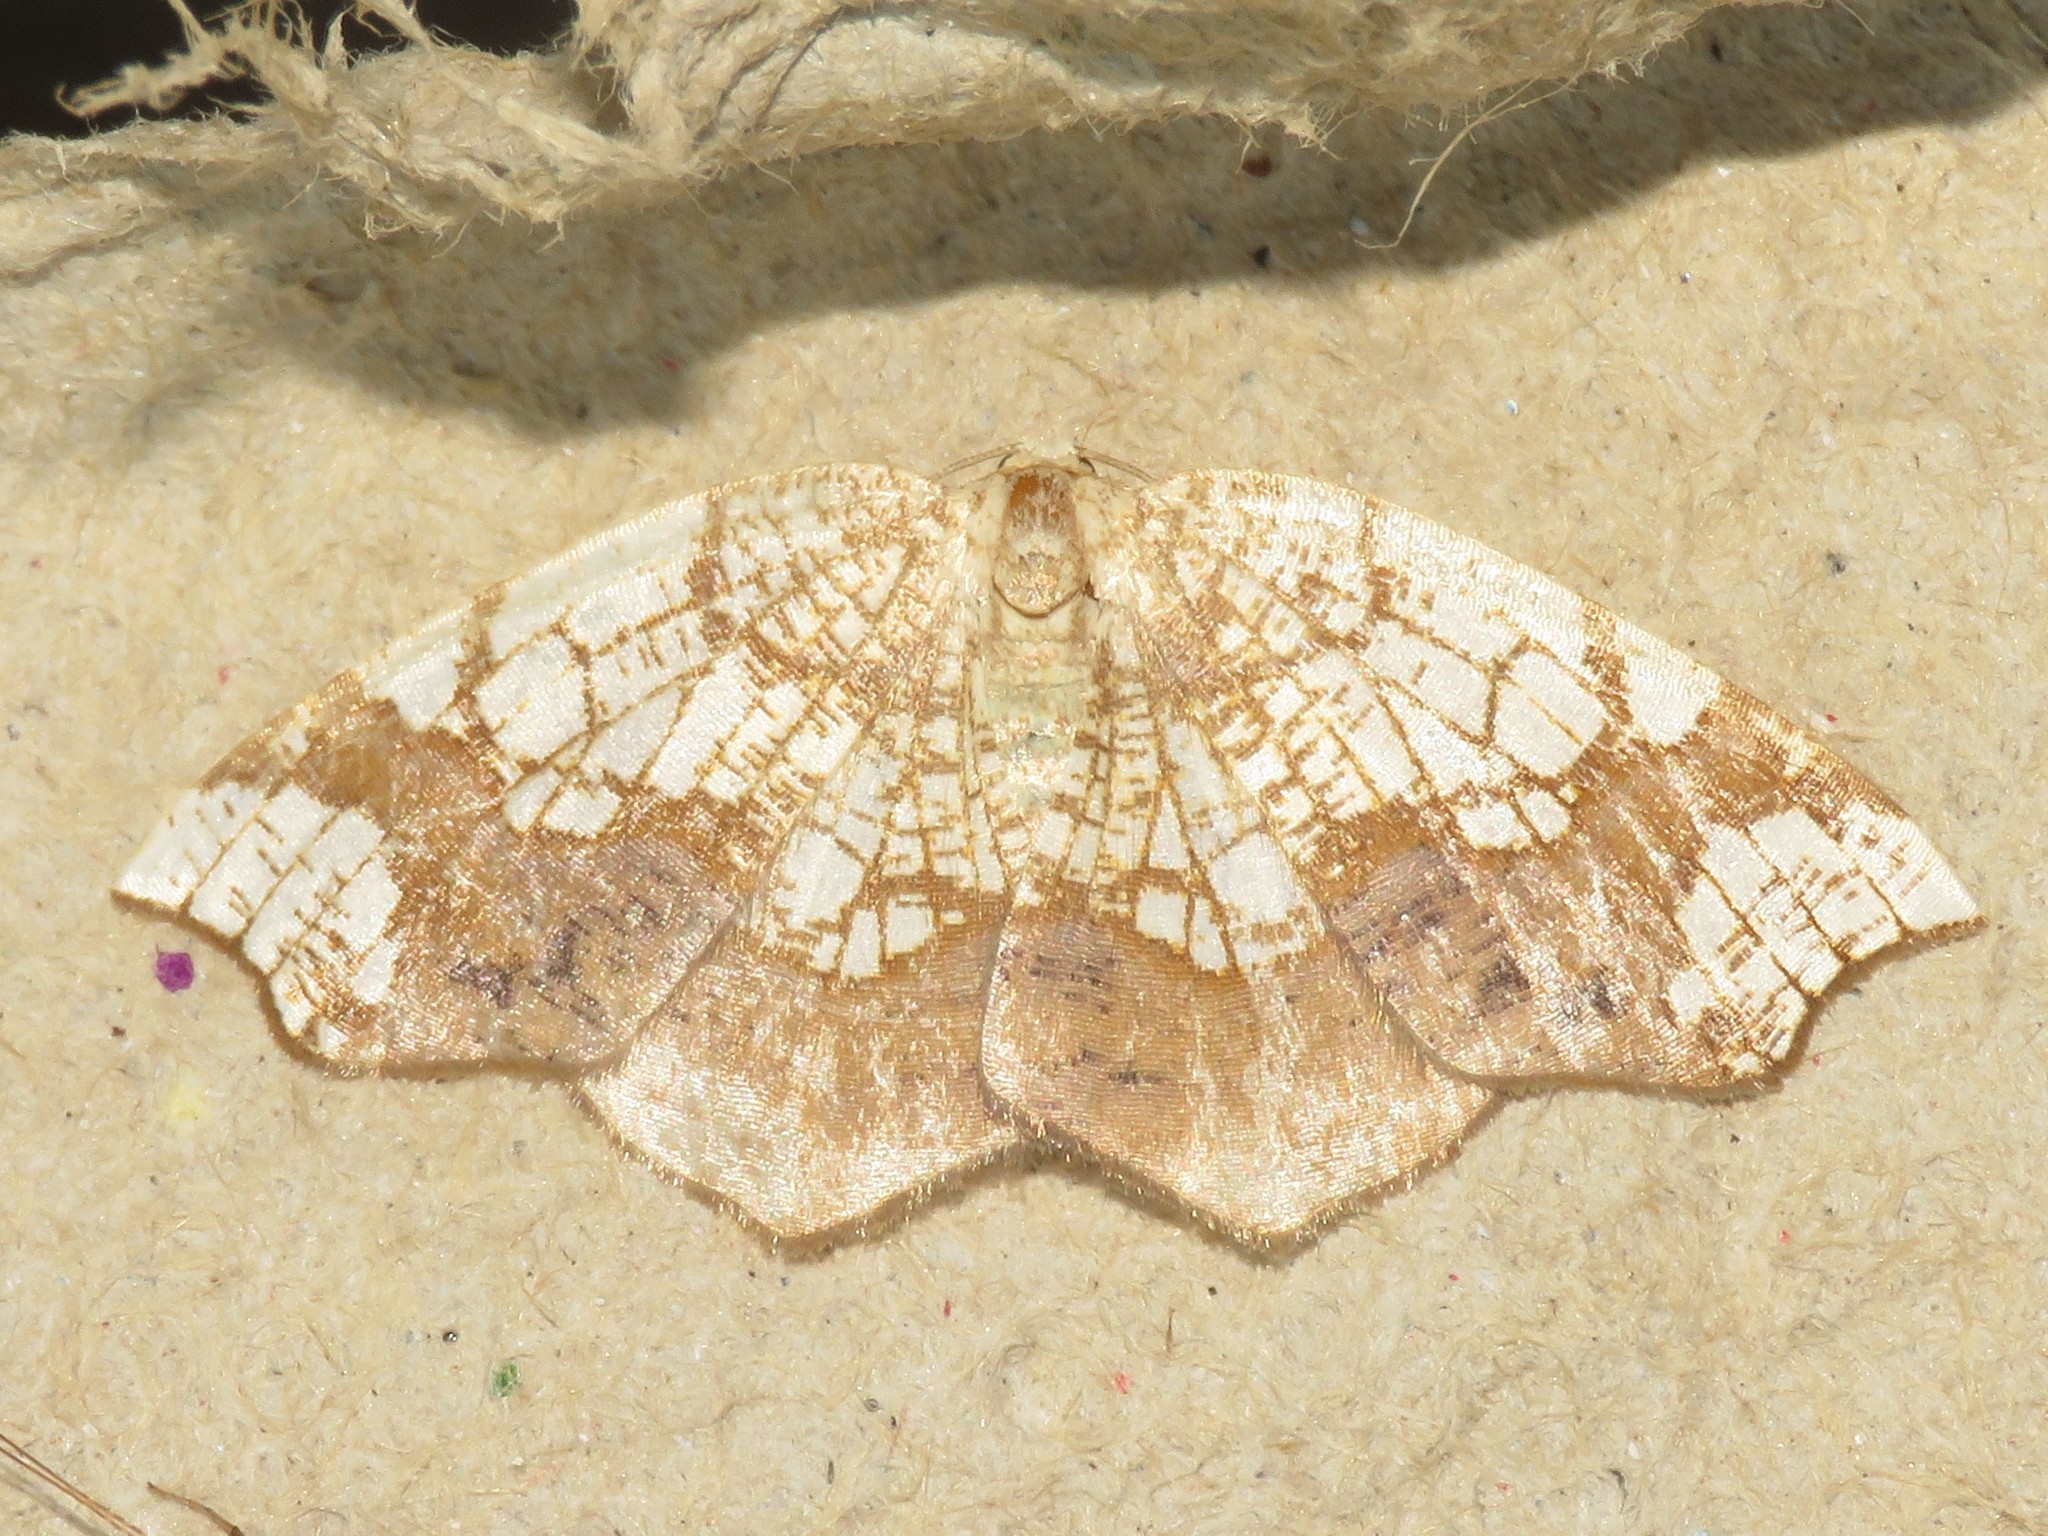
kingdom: Animalia
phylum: Arthropoda
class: Insecta
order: Lepidoptera
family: Geometridae
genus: Nematocampa
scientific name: Nematocampa resistaria
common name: Horned spanworm moth
